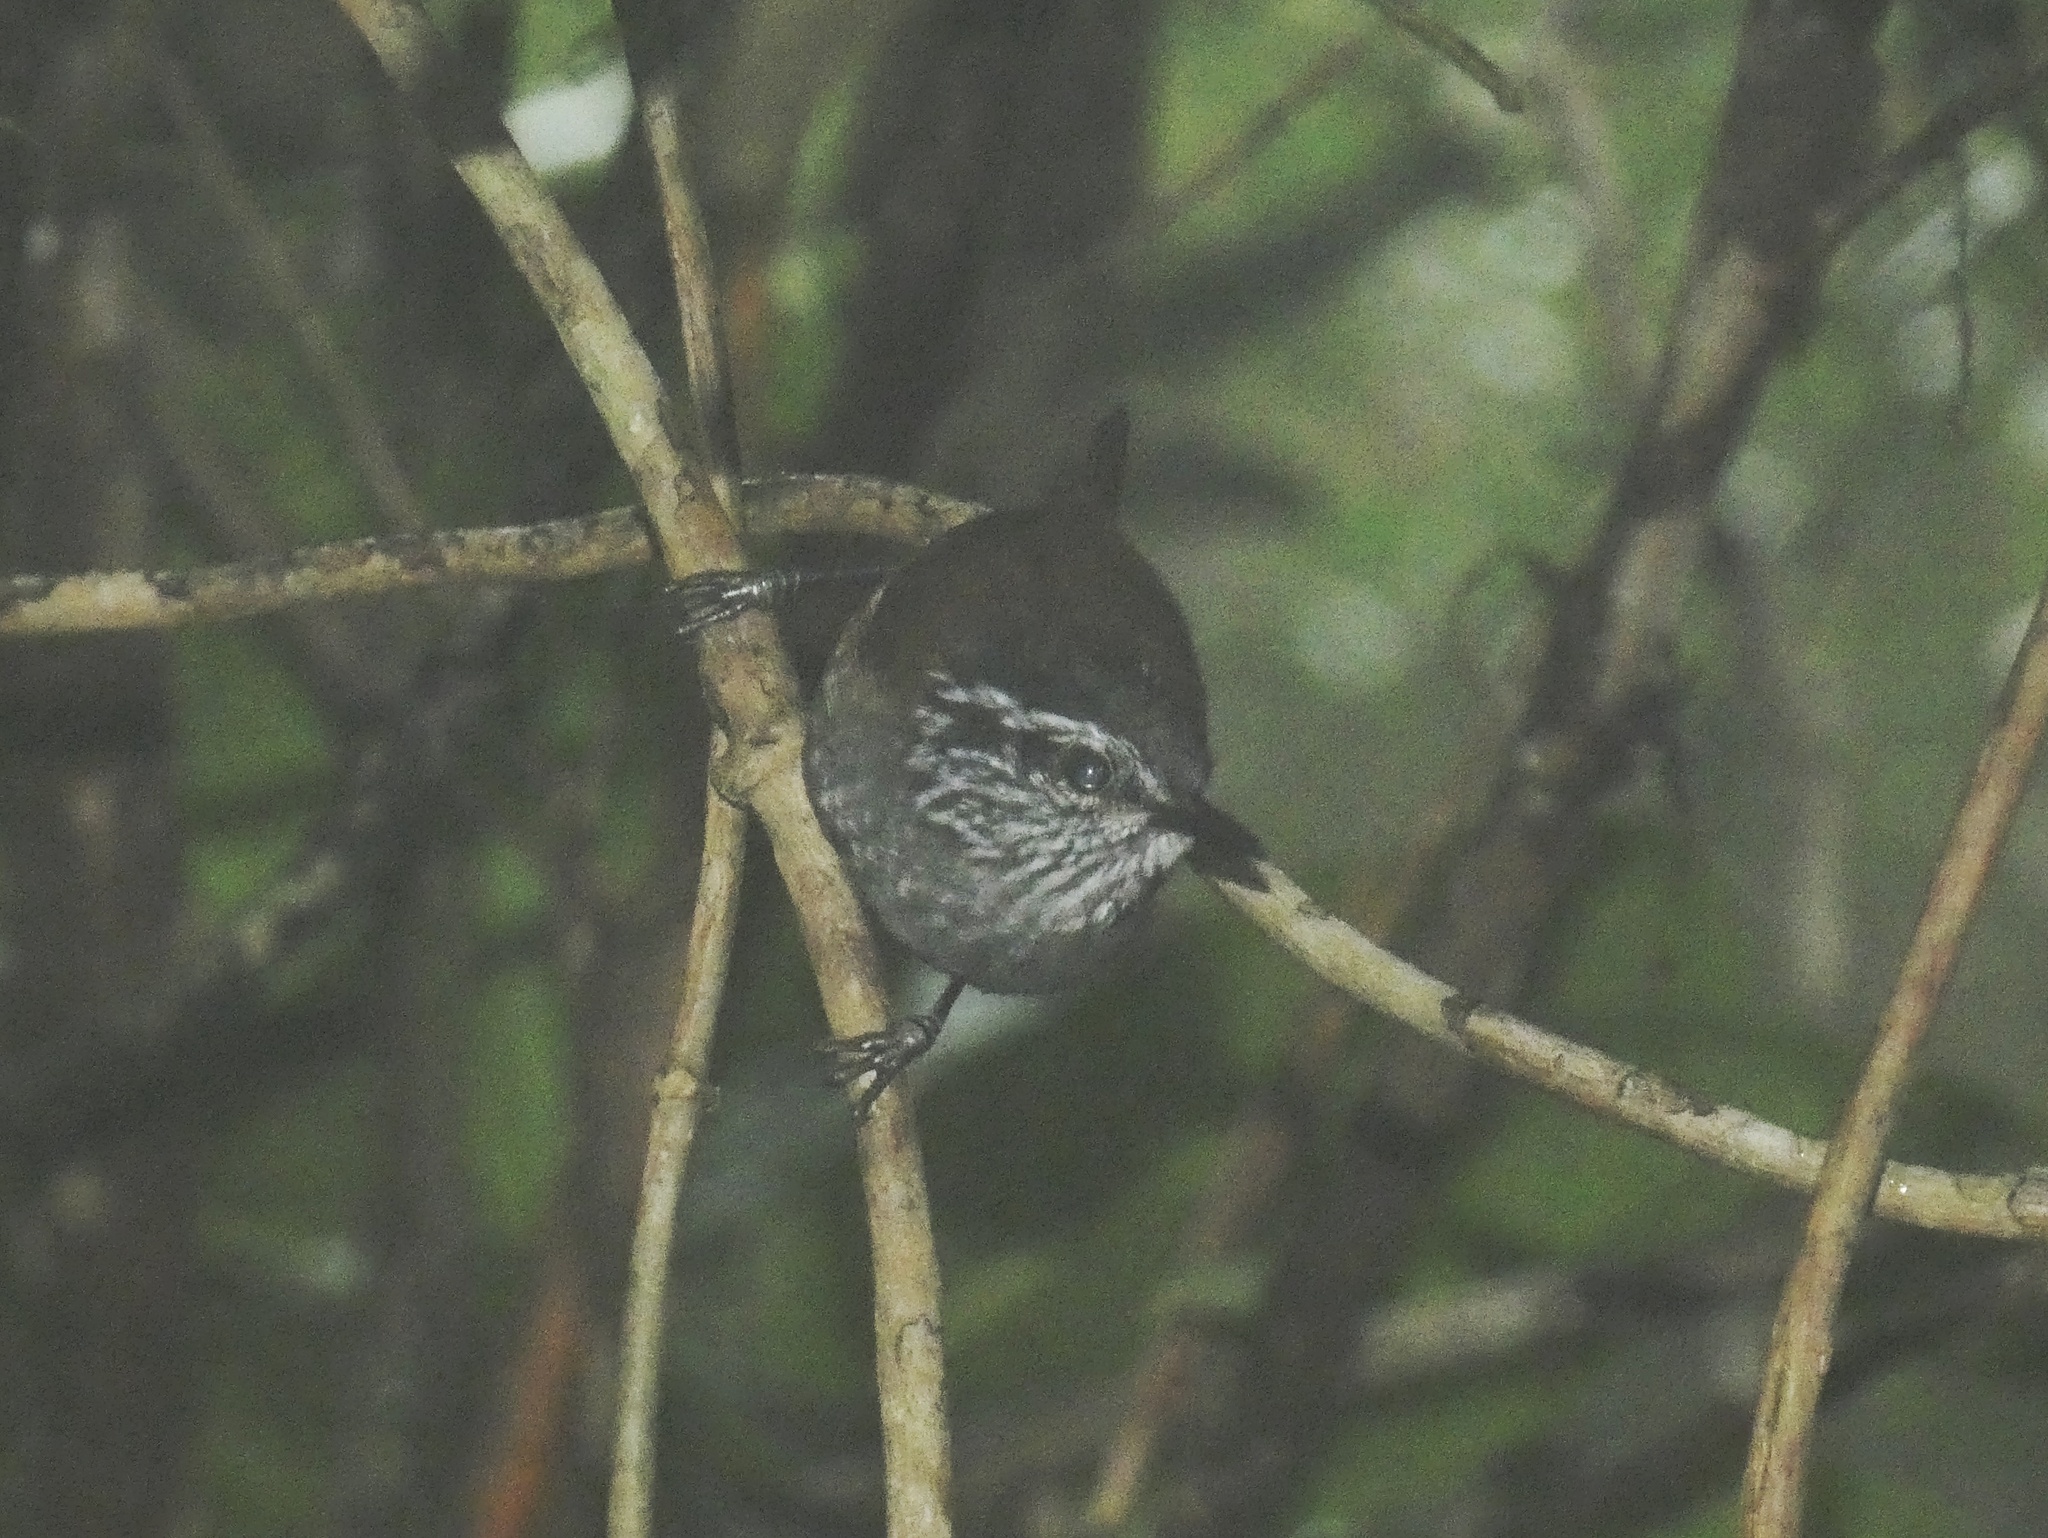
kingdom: Animalia
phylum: Chordata
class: Aves
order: Passeriformes
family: Troglodytidae
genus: Henicorhina
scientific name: Henicorhina leucosticta
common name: White-breasted wood-wren
